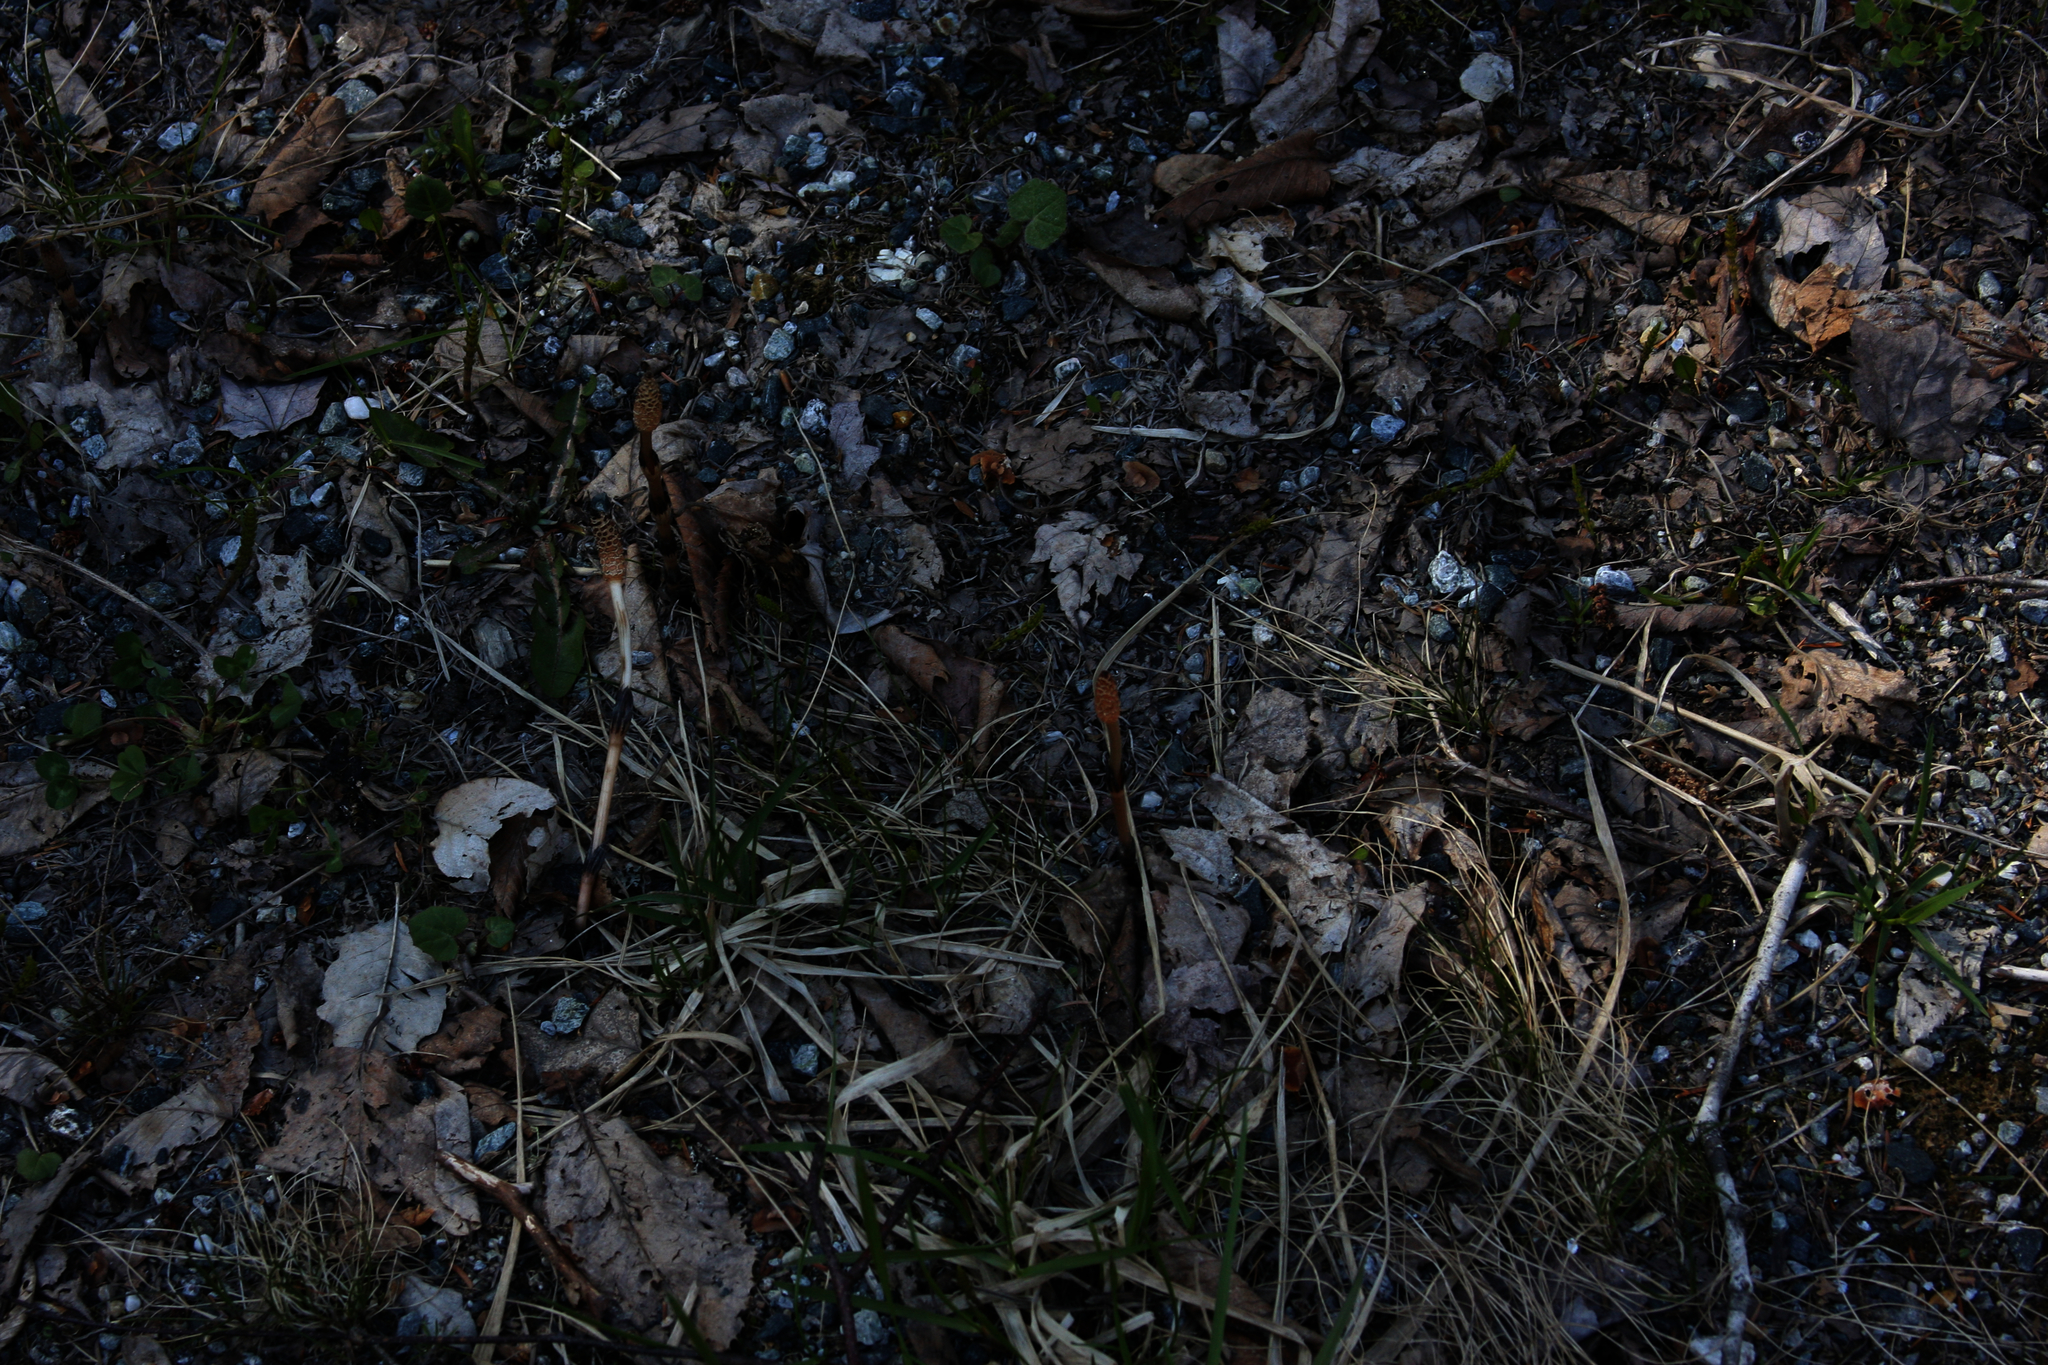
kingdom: Plantae
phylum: Tracheophyta
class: Polypodiopsida
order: Equisetales
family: Equisetaceae
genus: Equisetum
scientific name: Equisetum arvense
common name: Field horsetail
